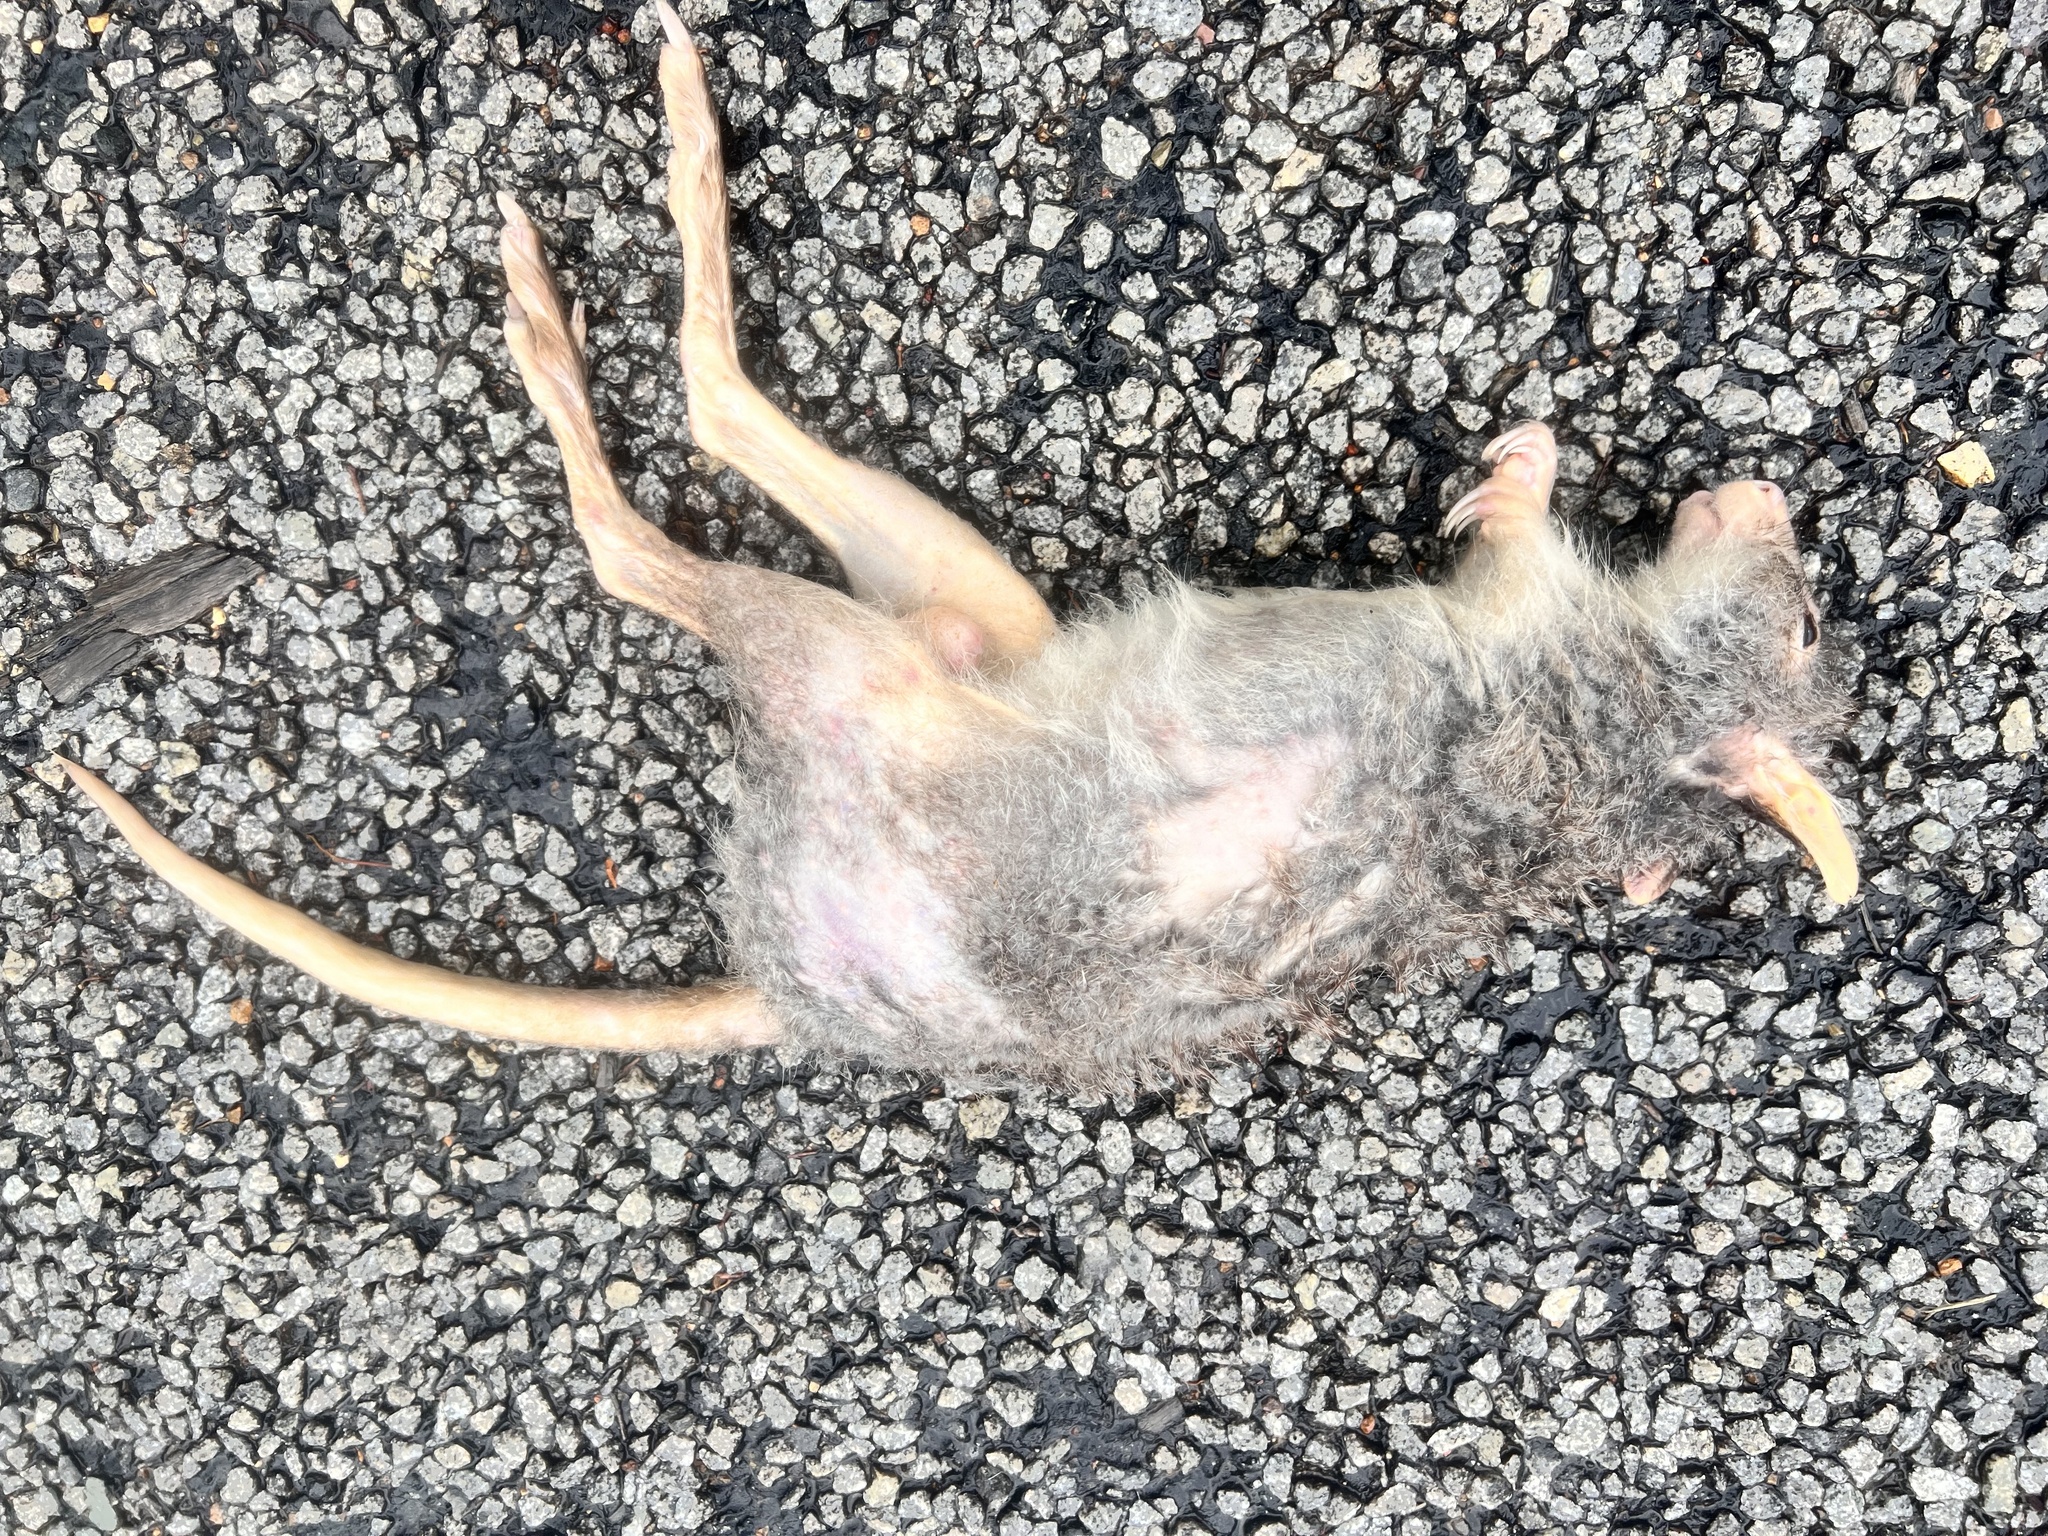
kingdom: Animalia
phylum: Chordata
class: Mammalia
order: Diprotodontia
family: Potoroidae
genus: Aepyprymnus
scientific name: Aepyprymnus rufescens
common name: Rufous rat-kangaroo
